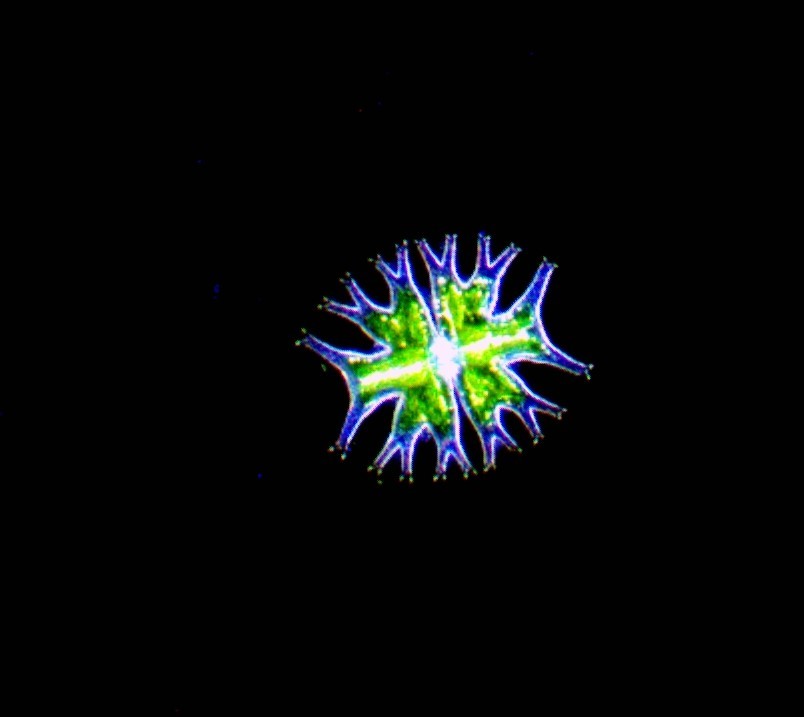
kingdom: Plantae
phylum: Charophyta
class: Conjugatophyceae
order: Desmidiales
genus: Micrasterias
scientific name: Micrasterias furcata
